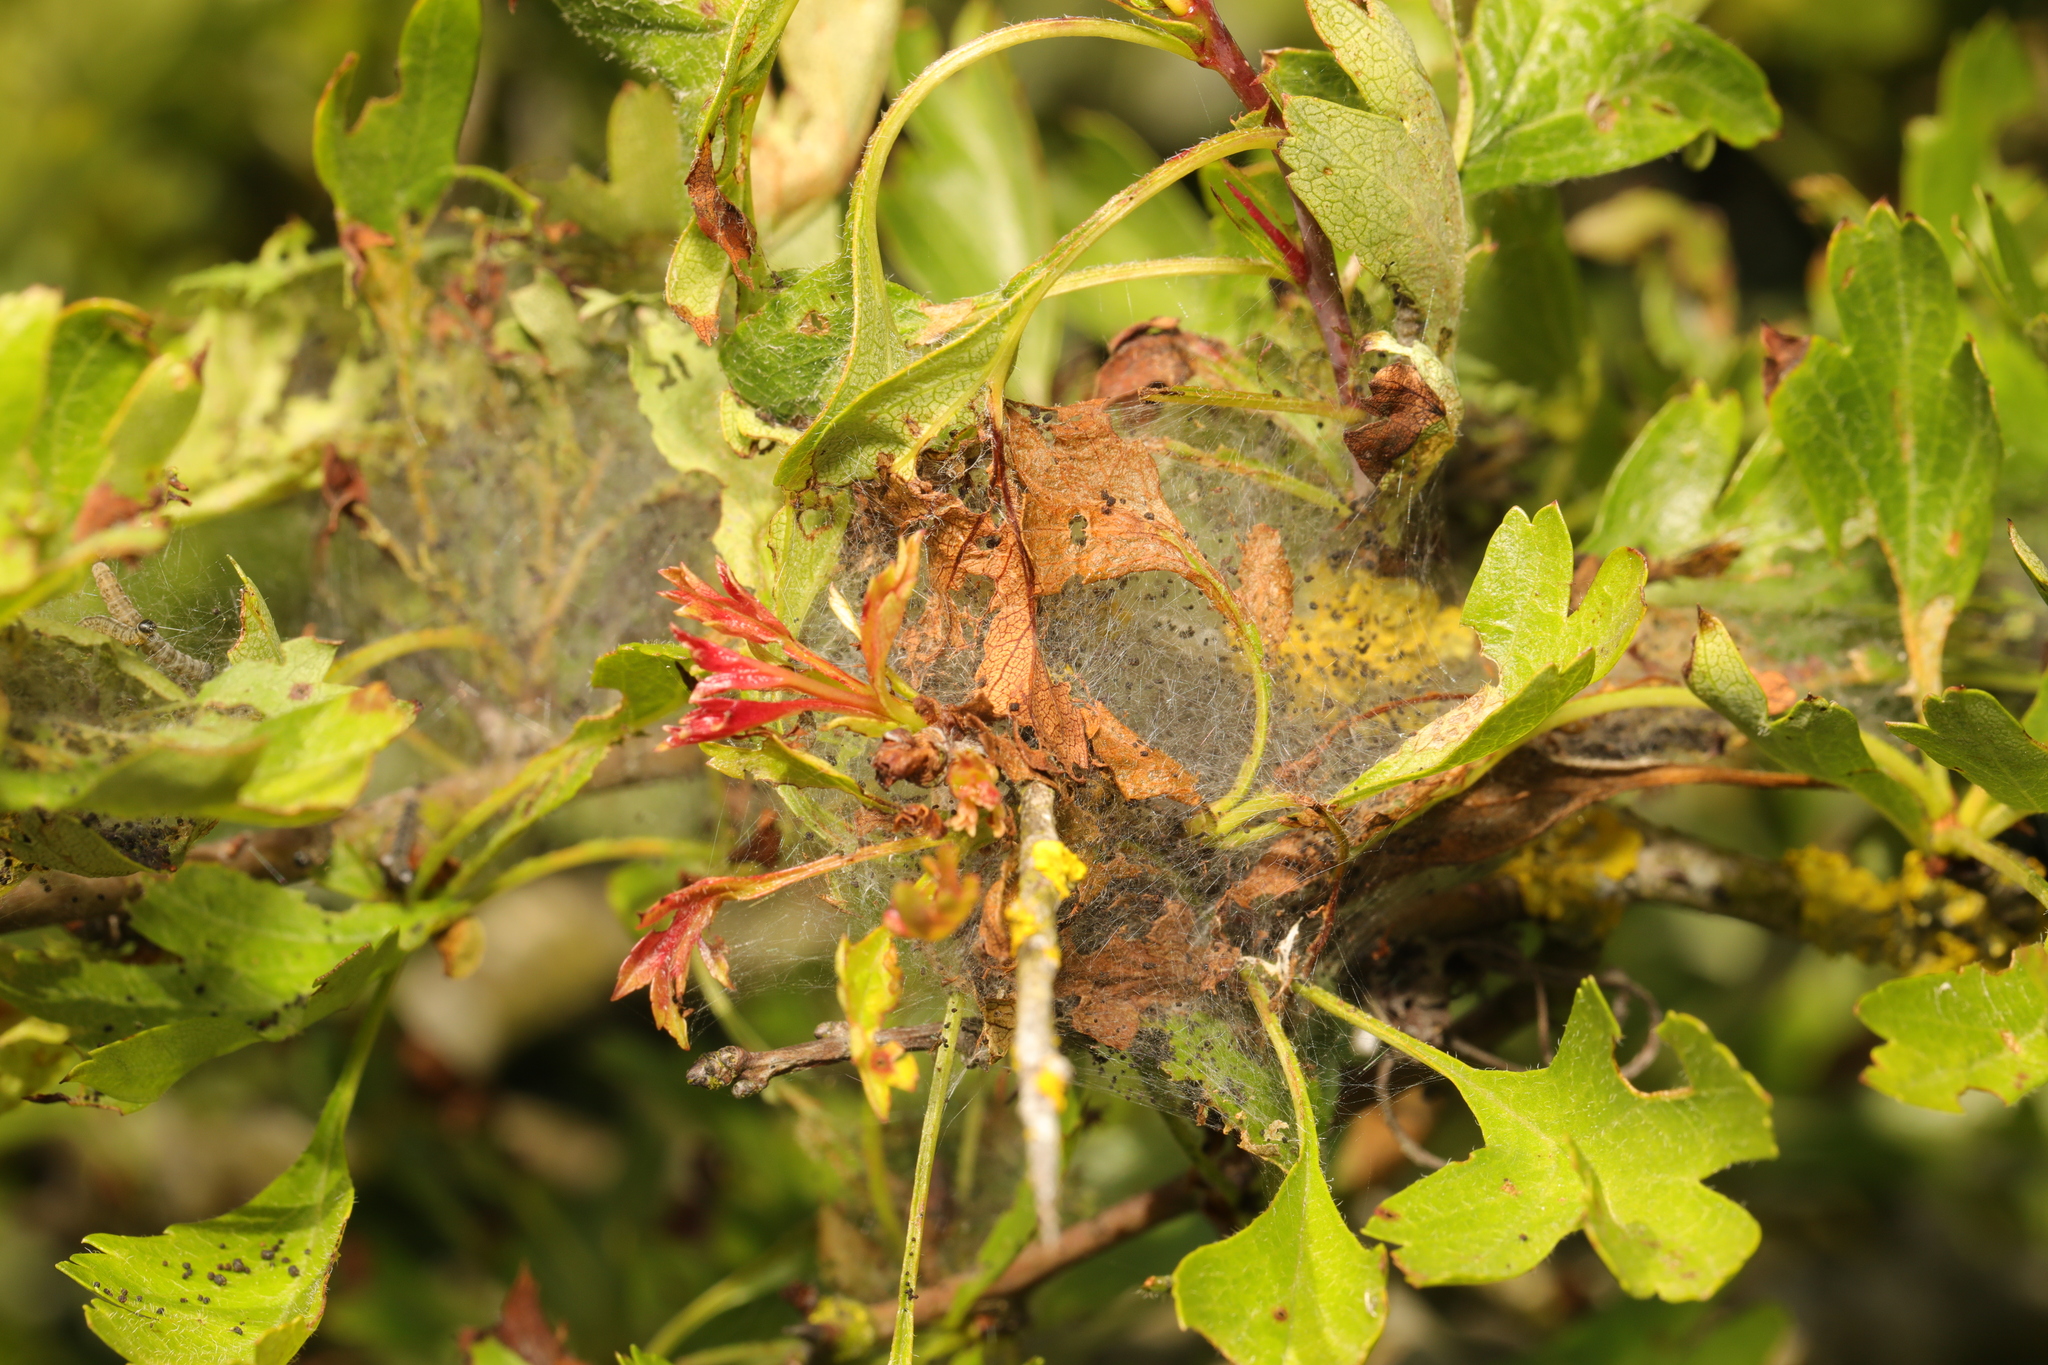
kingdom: Animalia
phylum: Arthropoda
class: Insecta
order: Hymenoptera
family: Pamphiliidae
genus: Neurotoma
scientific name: Neurotoma saltuum
